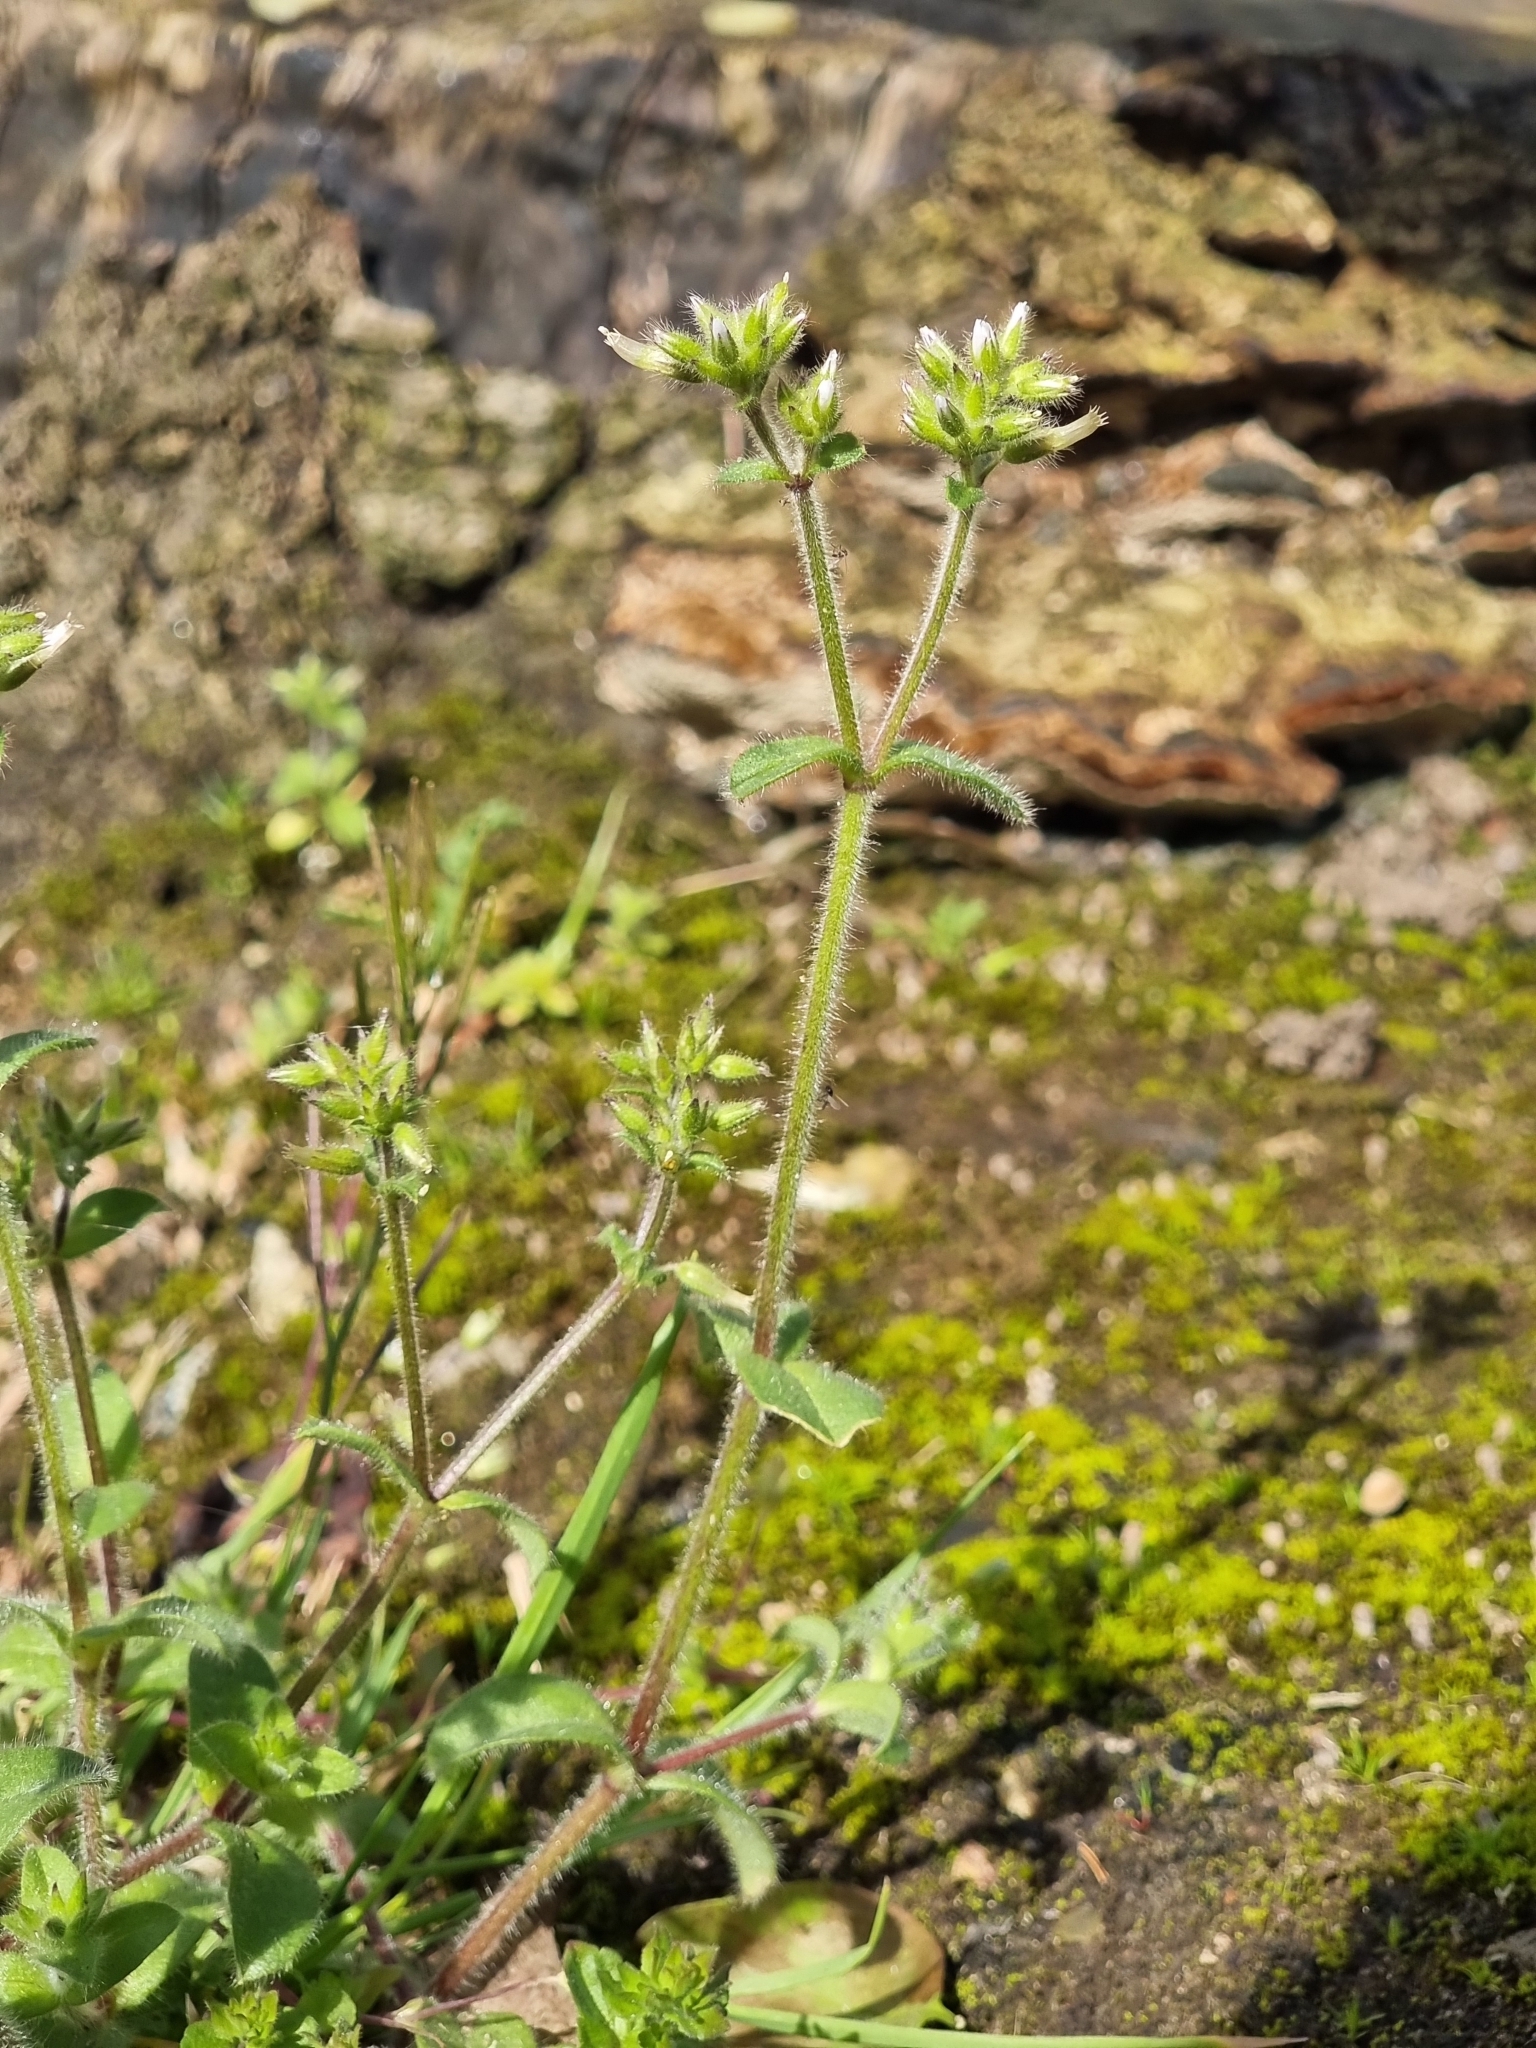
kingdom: Plantae
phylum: Tracheophyta
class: Magnoliopsida
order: Caryophyllales
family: Caryophyllaceae
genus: Cerastium
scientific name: Cerastium glomeratum
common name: Sticky chickweed
